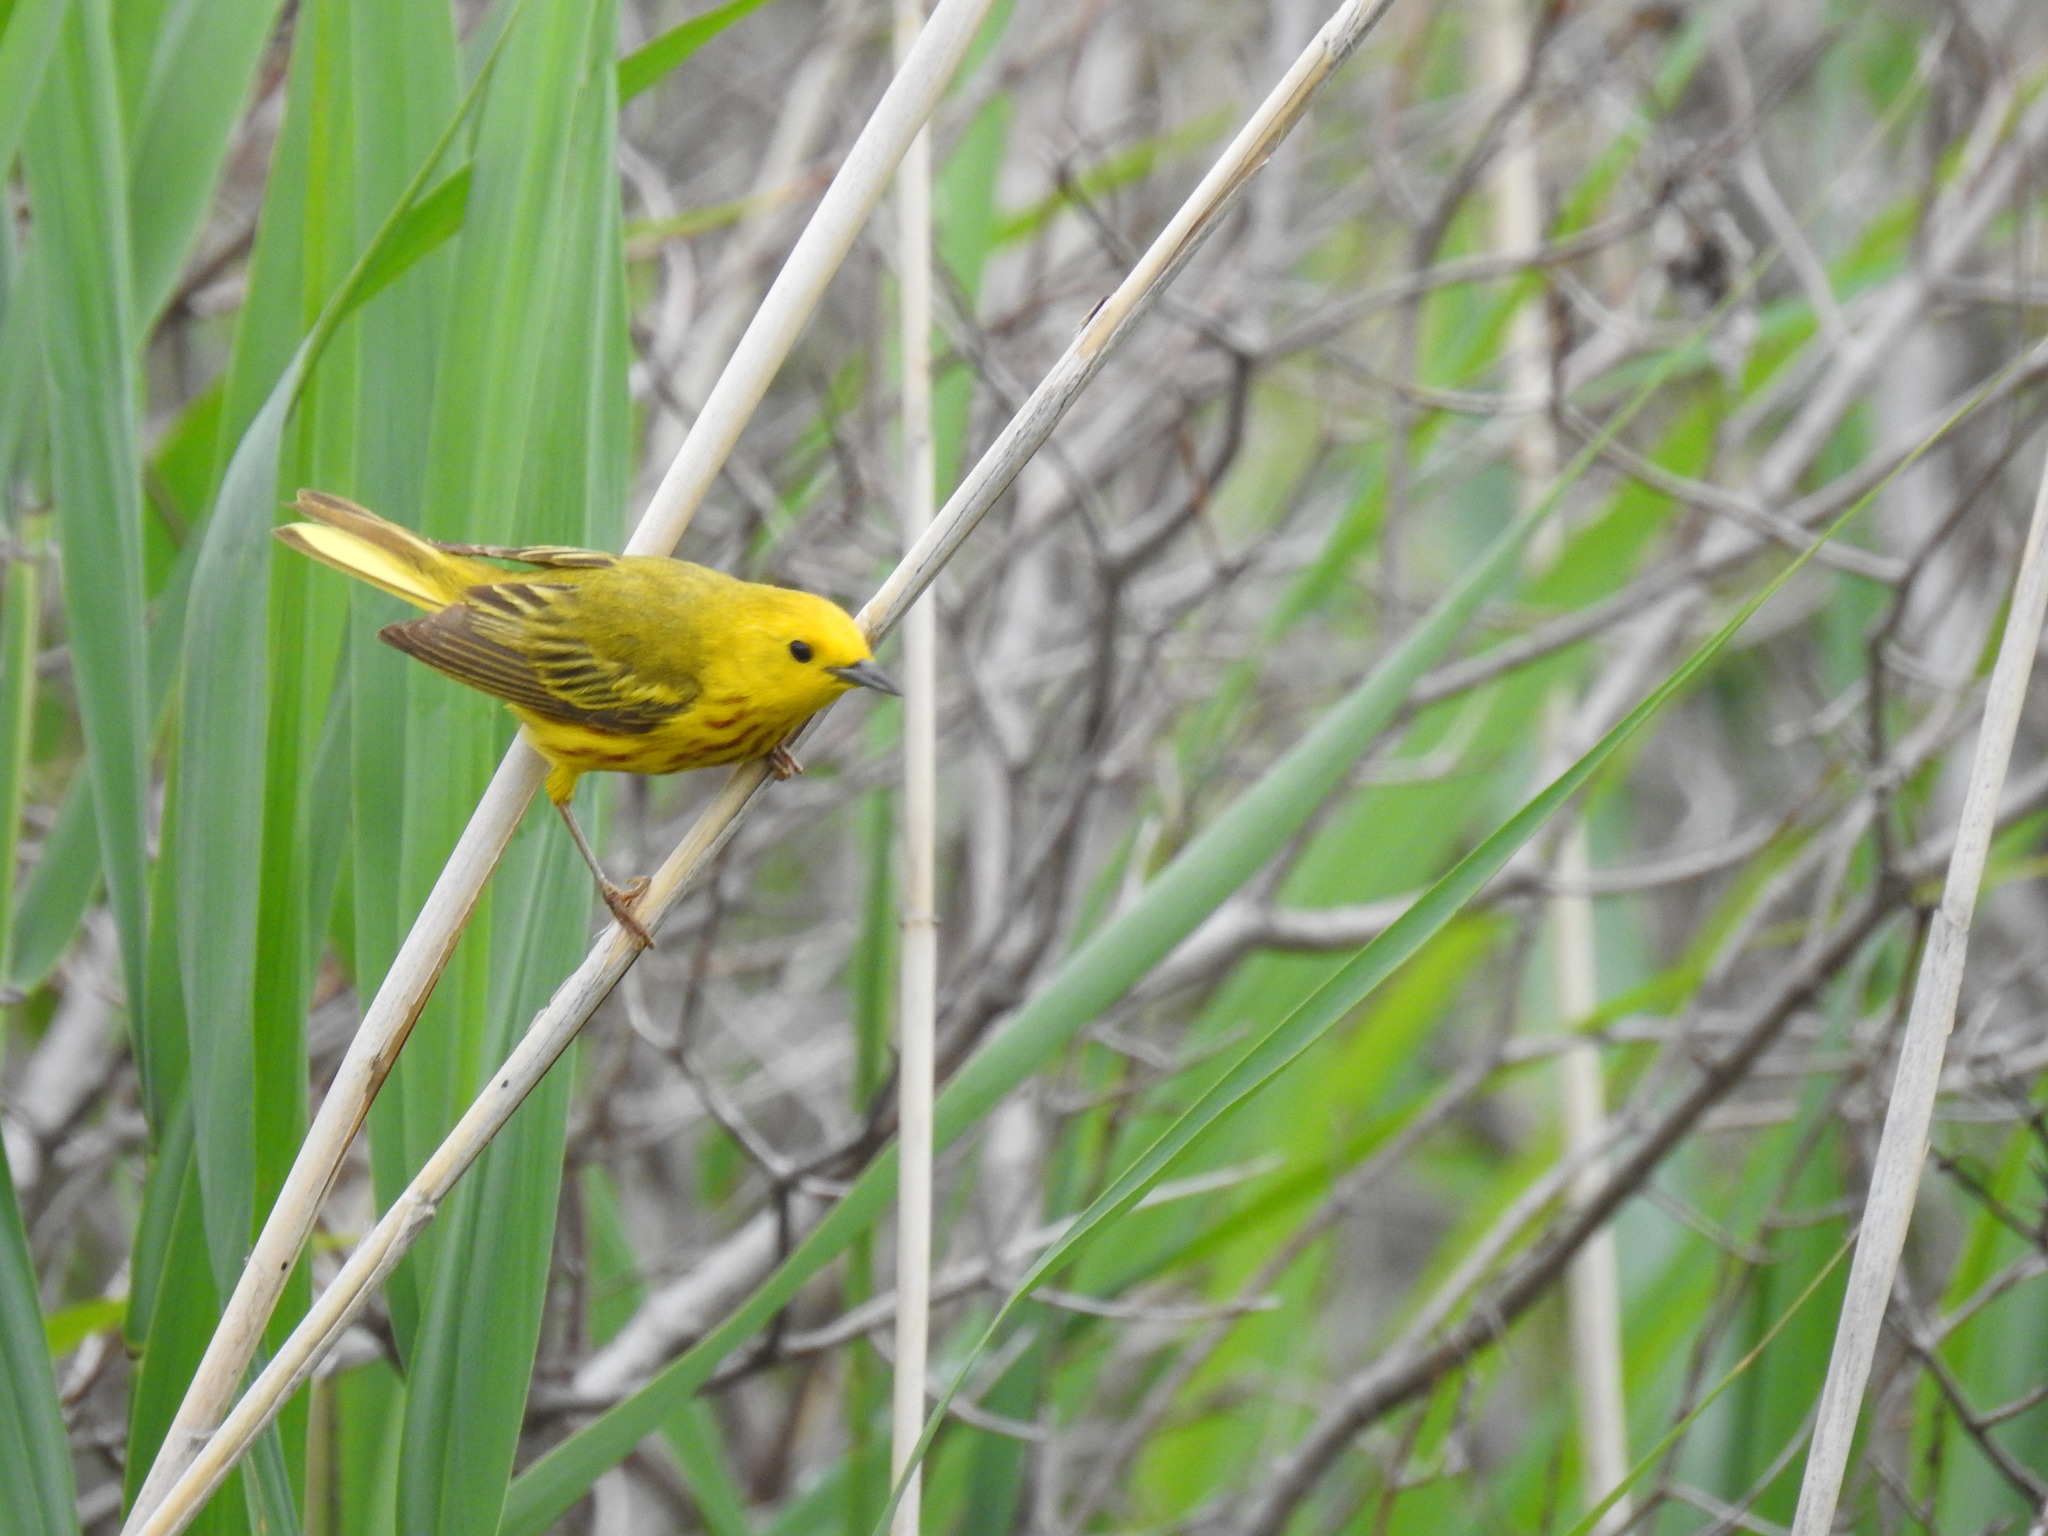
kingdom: Animalia
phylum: Chordata
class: Aves
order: Passeriformes
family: Parulidae
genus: Setophaga
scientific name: Setophaga petechia
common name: Yellow warbler
